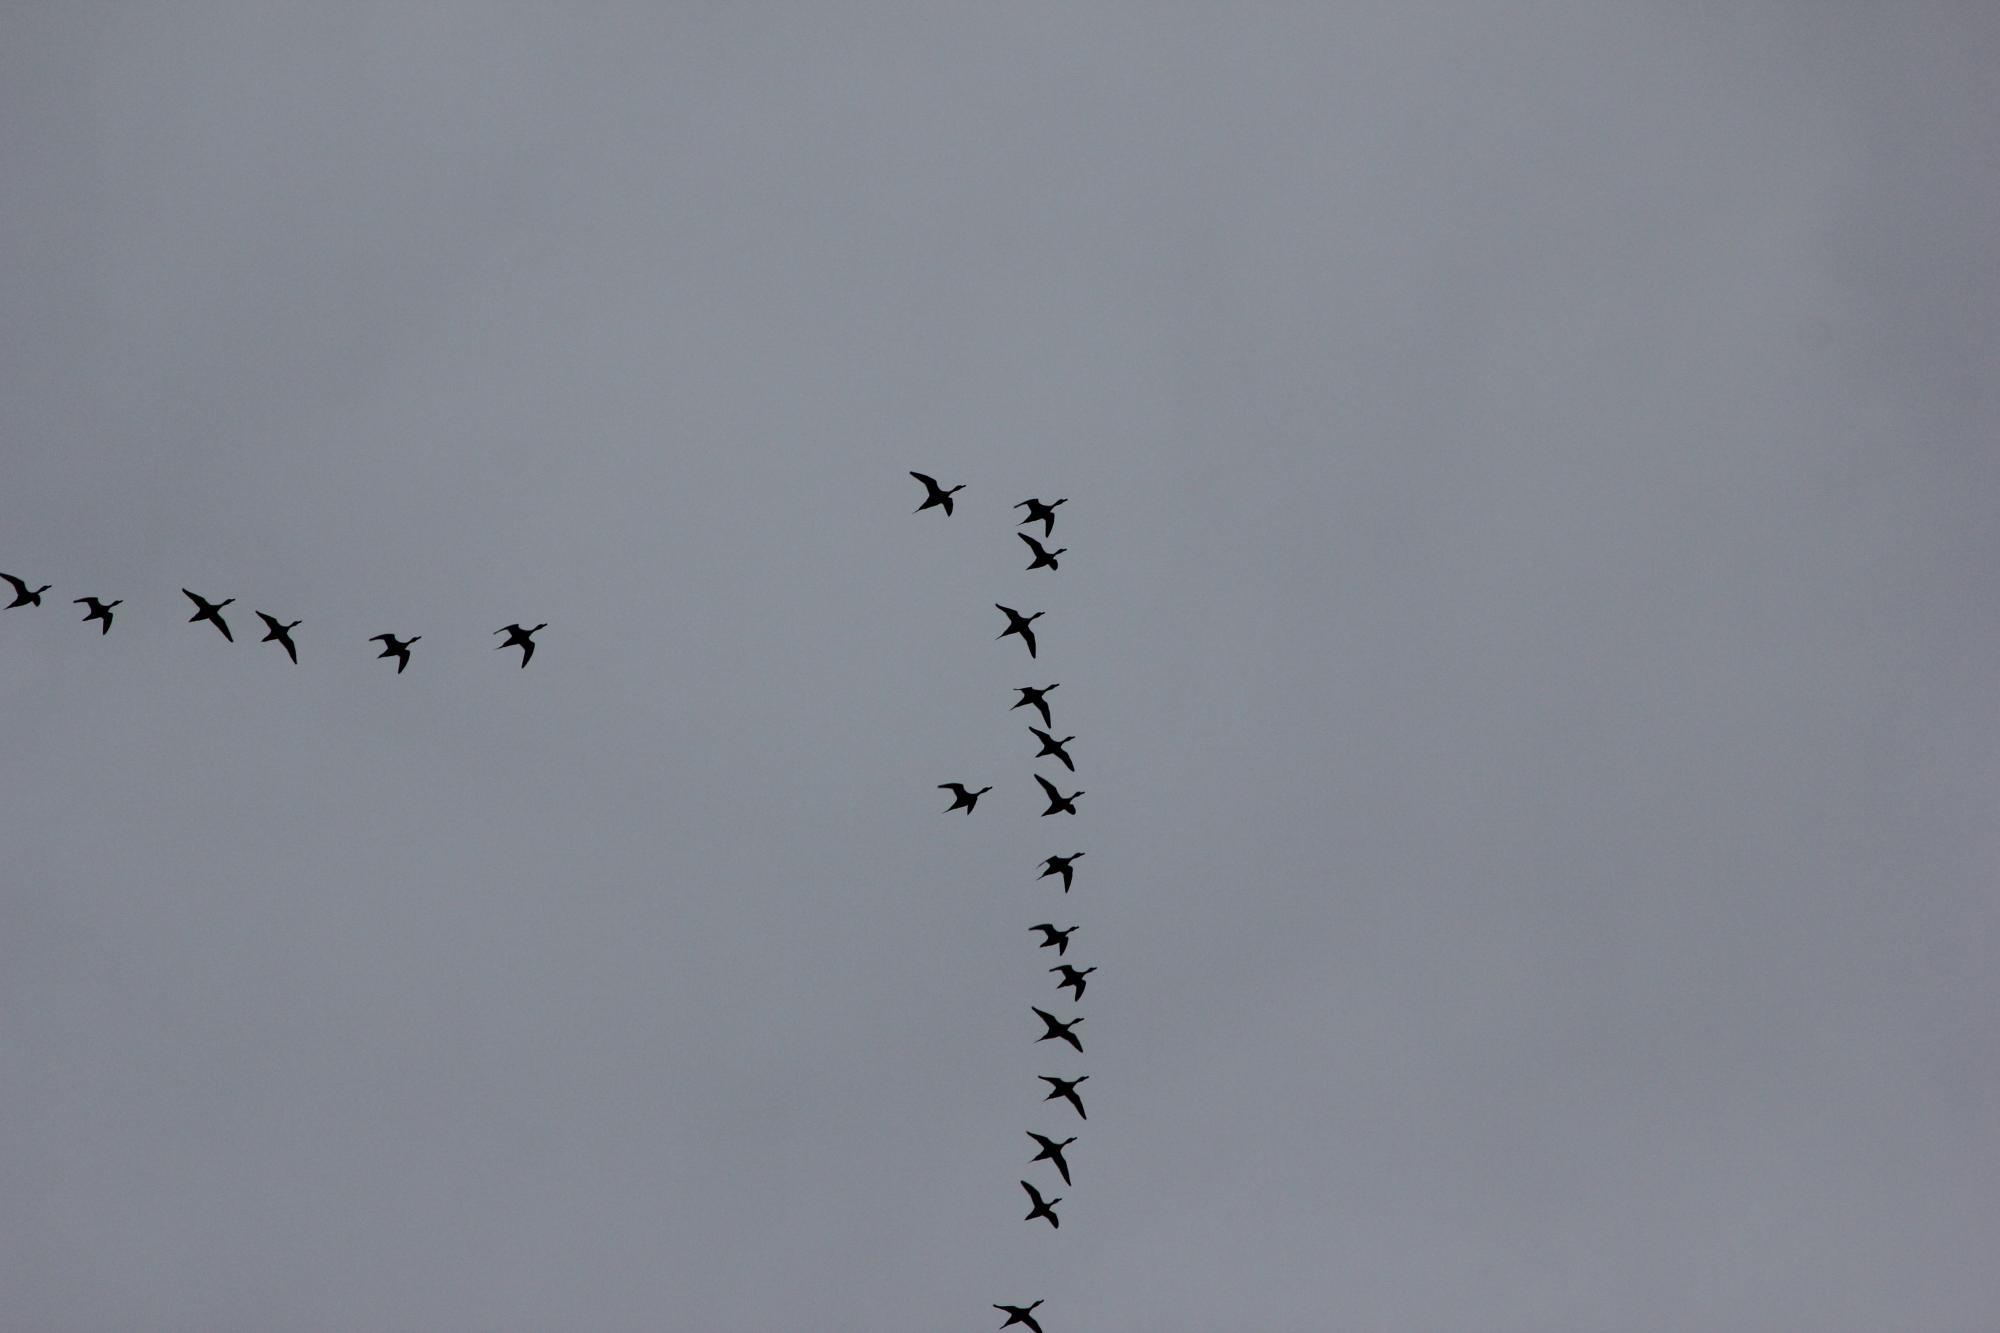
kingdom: Animalia
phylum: Chordata
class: Aves
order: Anseriformes
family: Anatidae
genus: Anas
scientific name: Anas acuta
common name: Northern pintail
